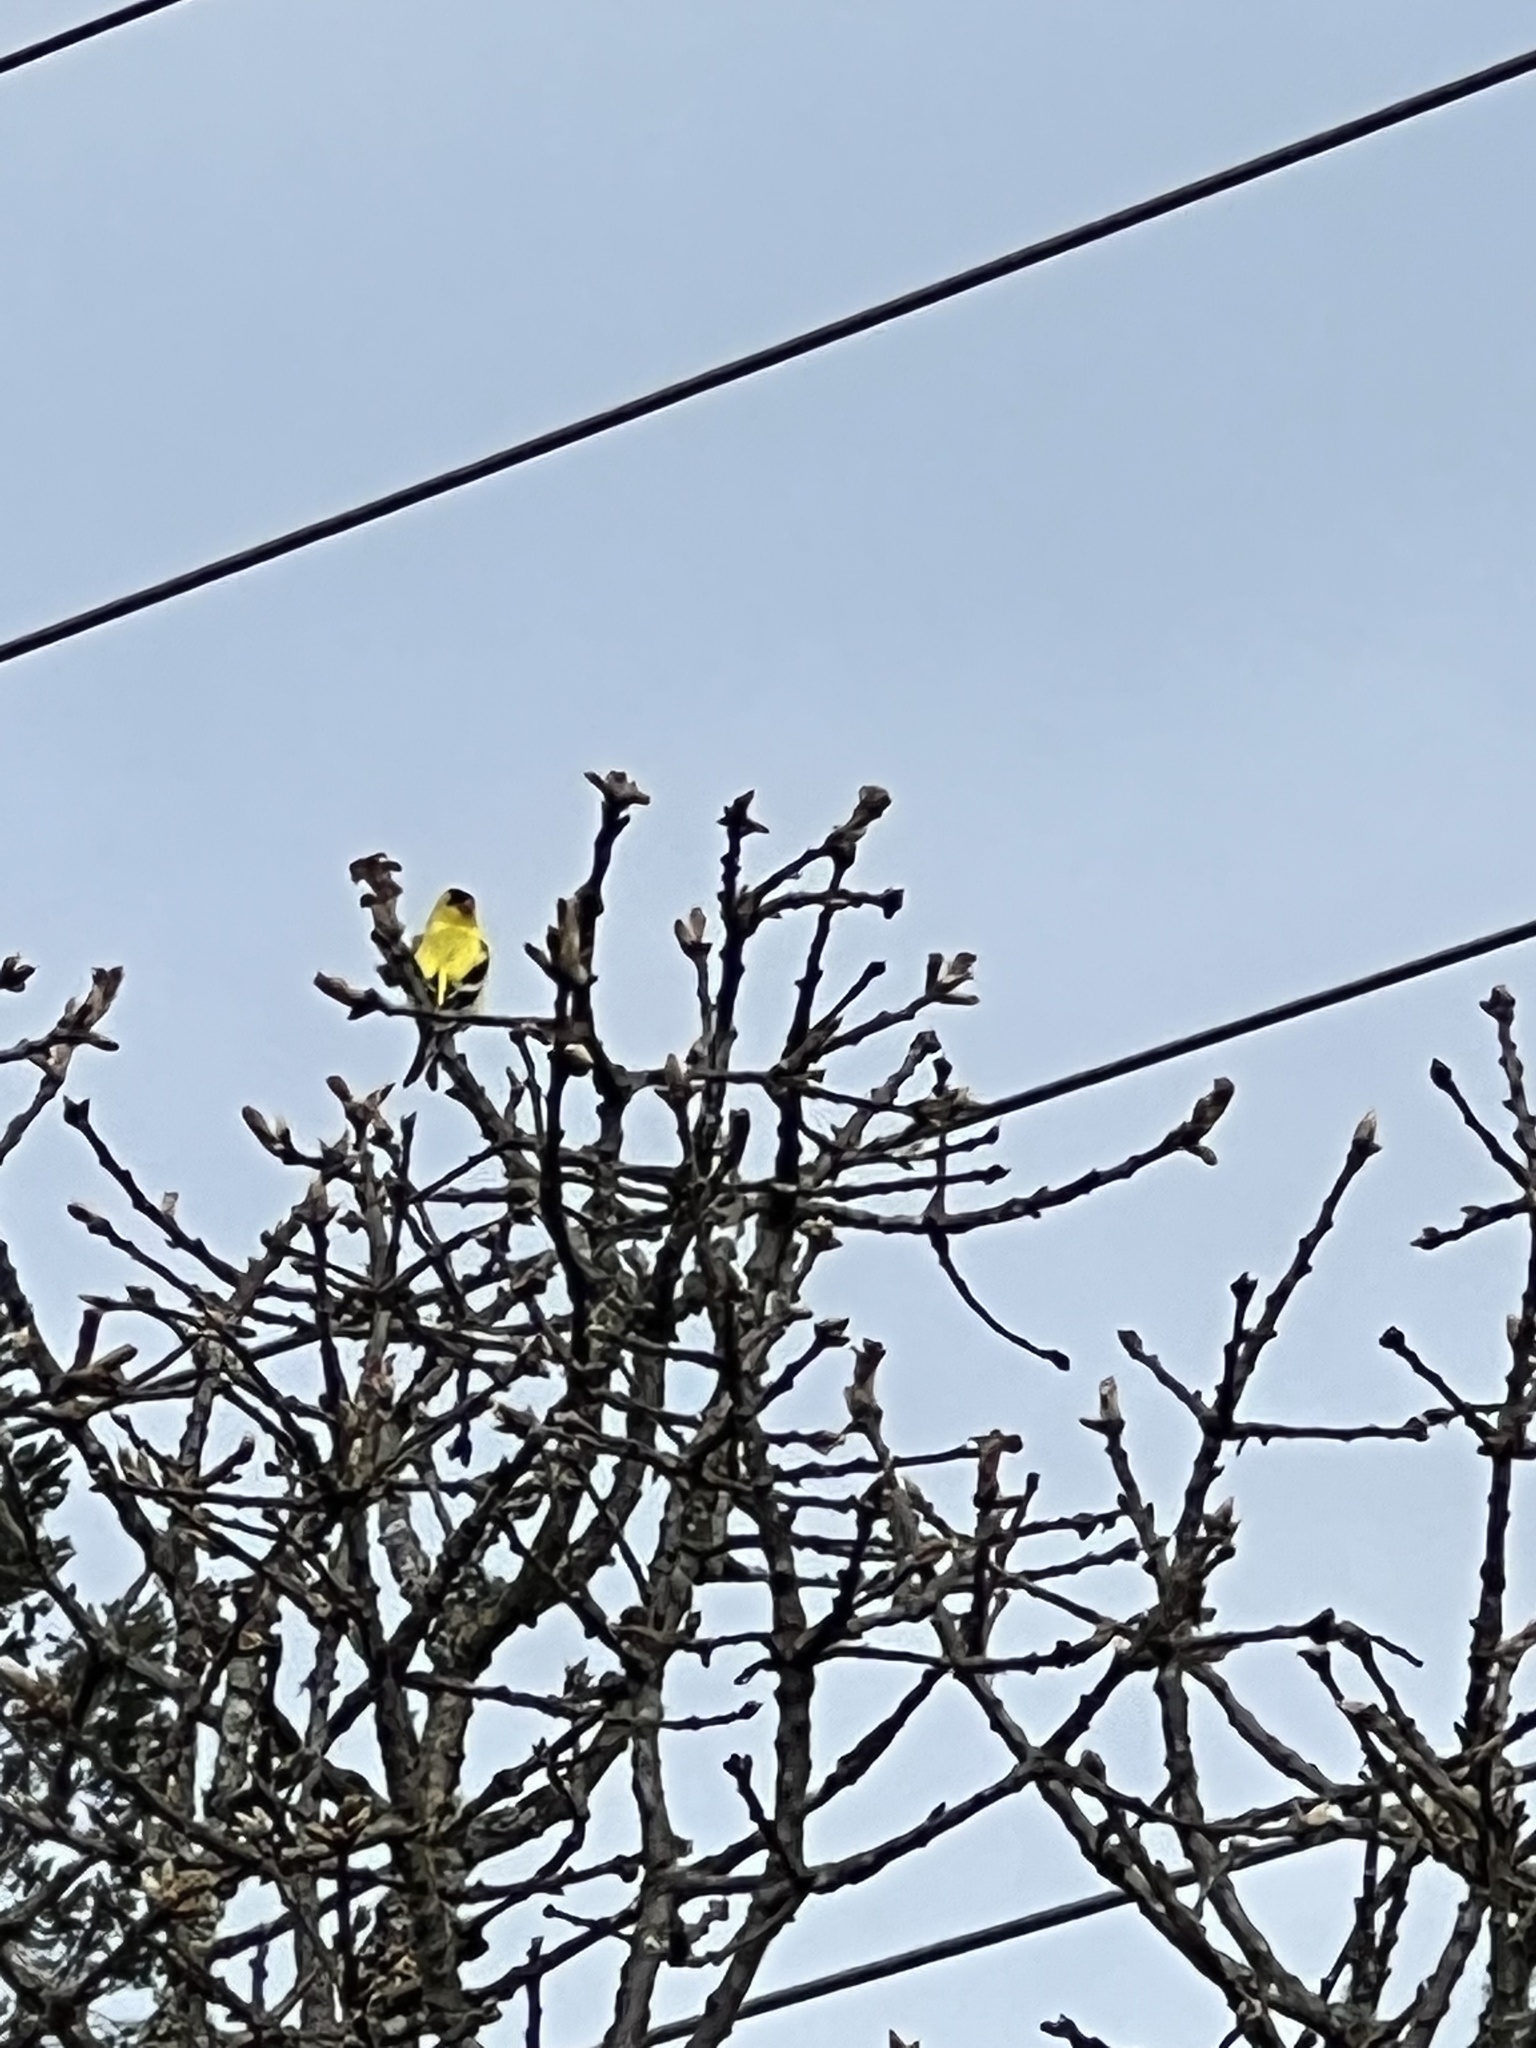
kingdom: Animalia
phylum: Chordata
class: Aves
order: Passeriformes
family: Fringillidae
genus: Spinus
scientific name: Spinus tristis
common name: American goldfinch
